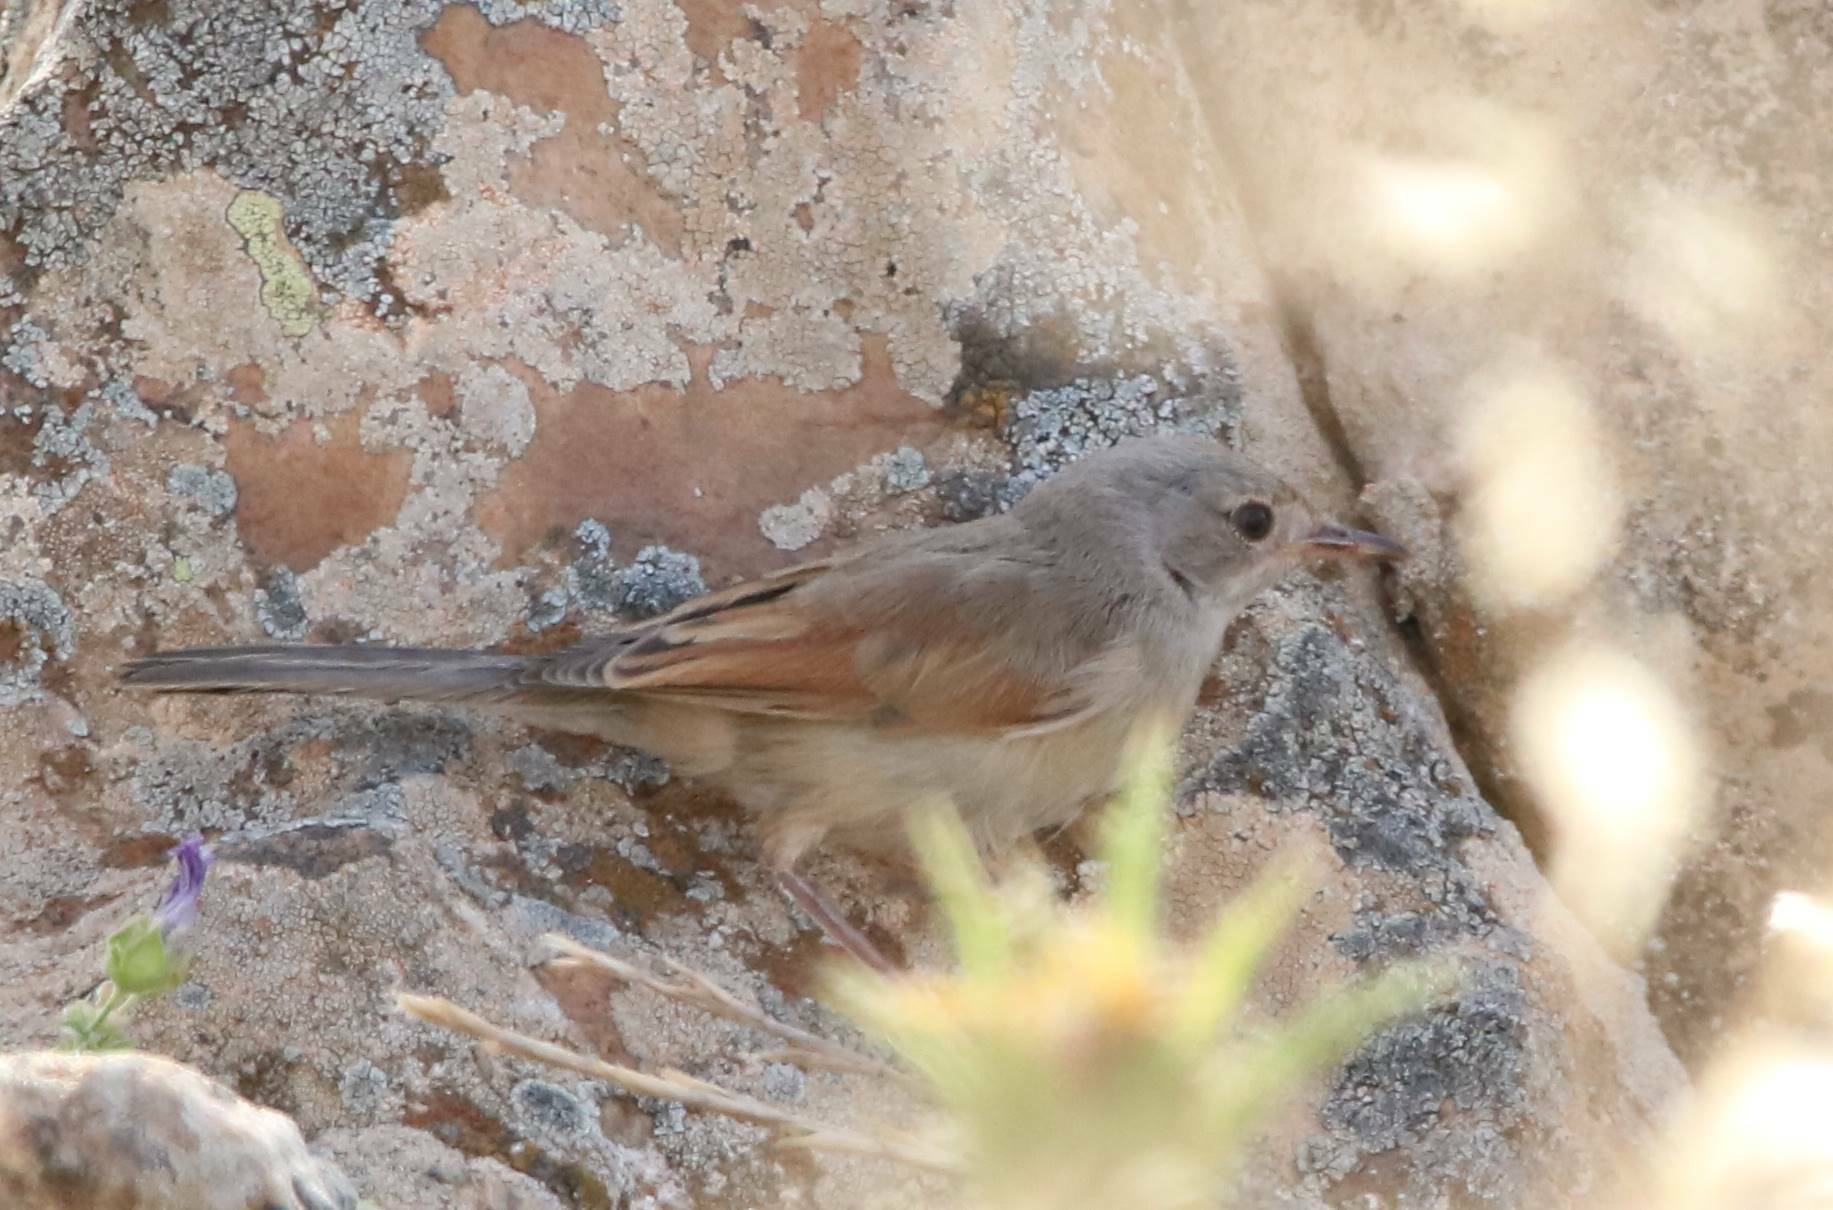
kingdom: Animalia
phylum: Chordata
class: Aves
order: Passeriformes
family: Sylviidae
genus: Sylvia
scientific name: Sylvia communis
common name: Common whitethroat
